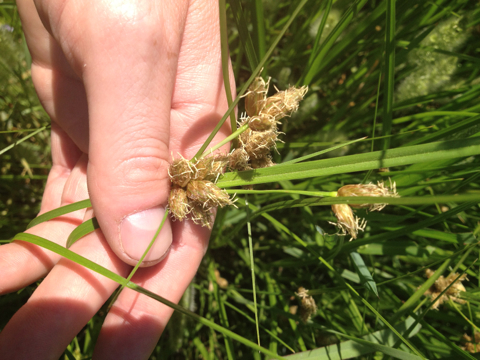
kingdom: Plantae
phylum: Tracheophyta
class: Liliopsida
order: Poales
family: Cyperaceae
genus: Bolboschoenus
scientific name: Bolboschoenus maritimus
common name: Sea club-rush
